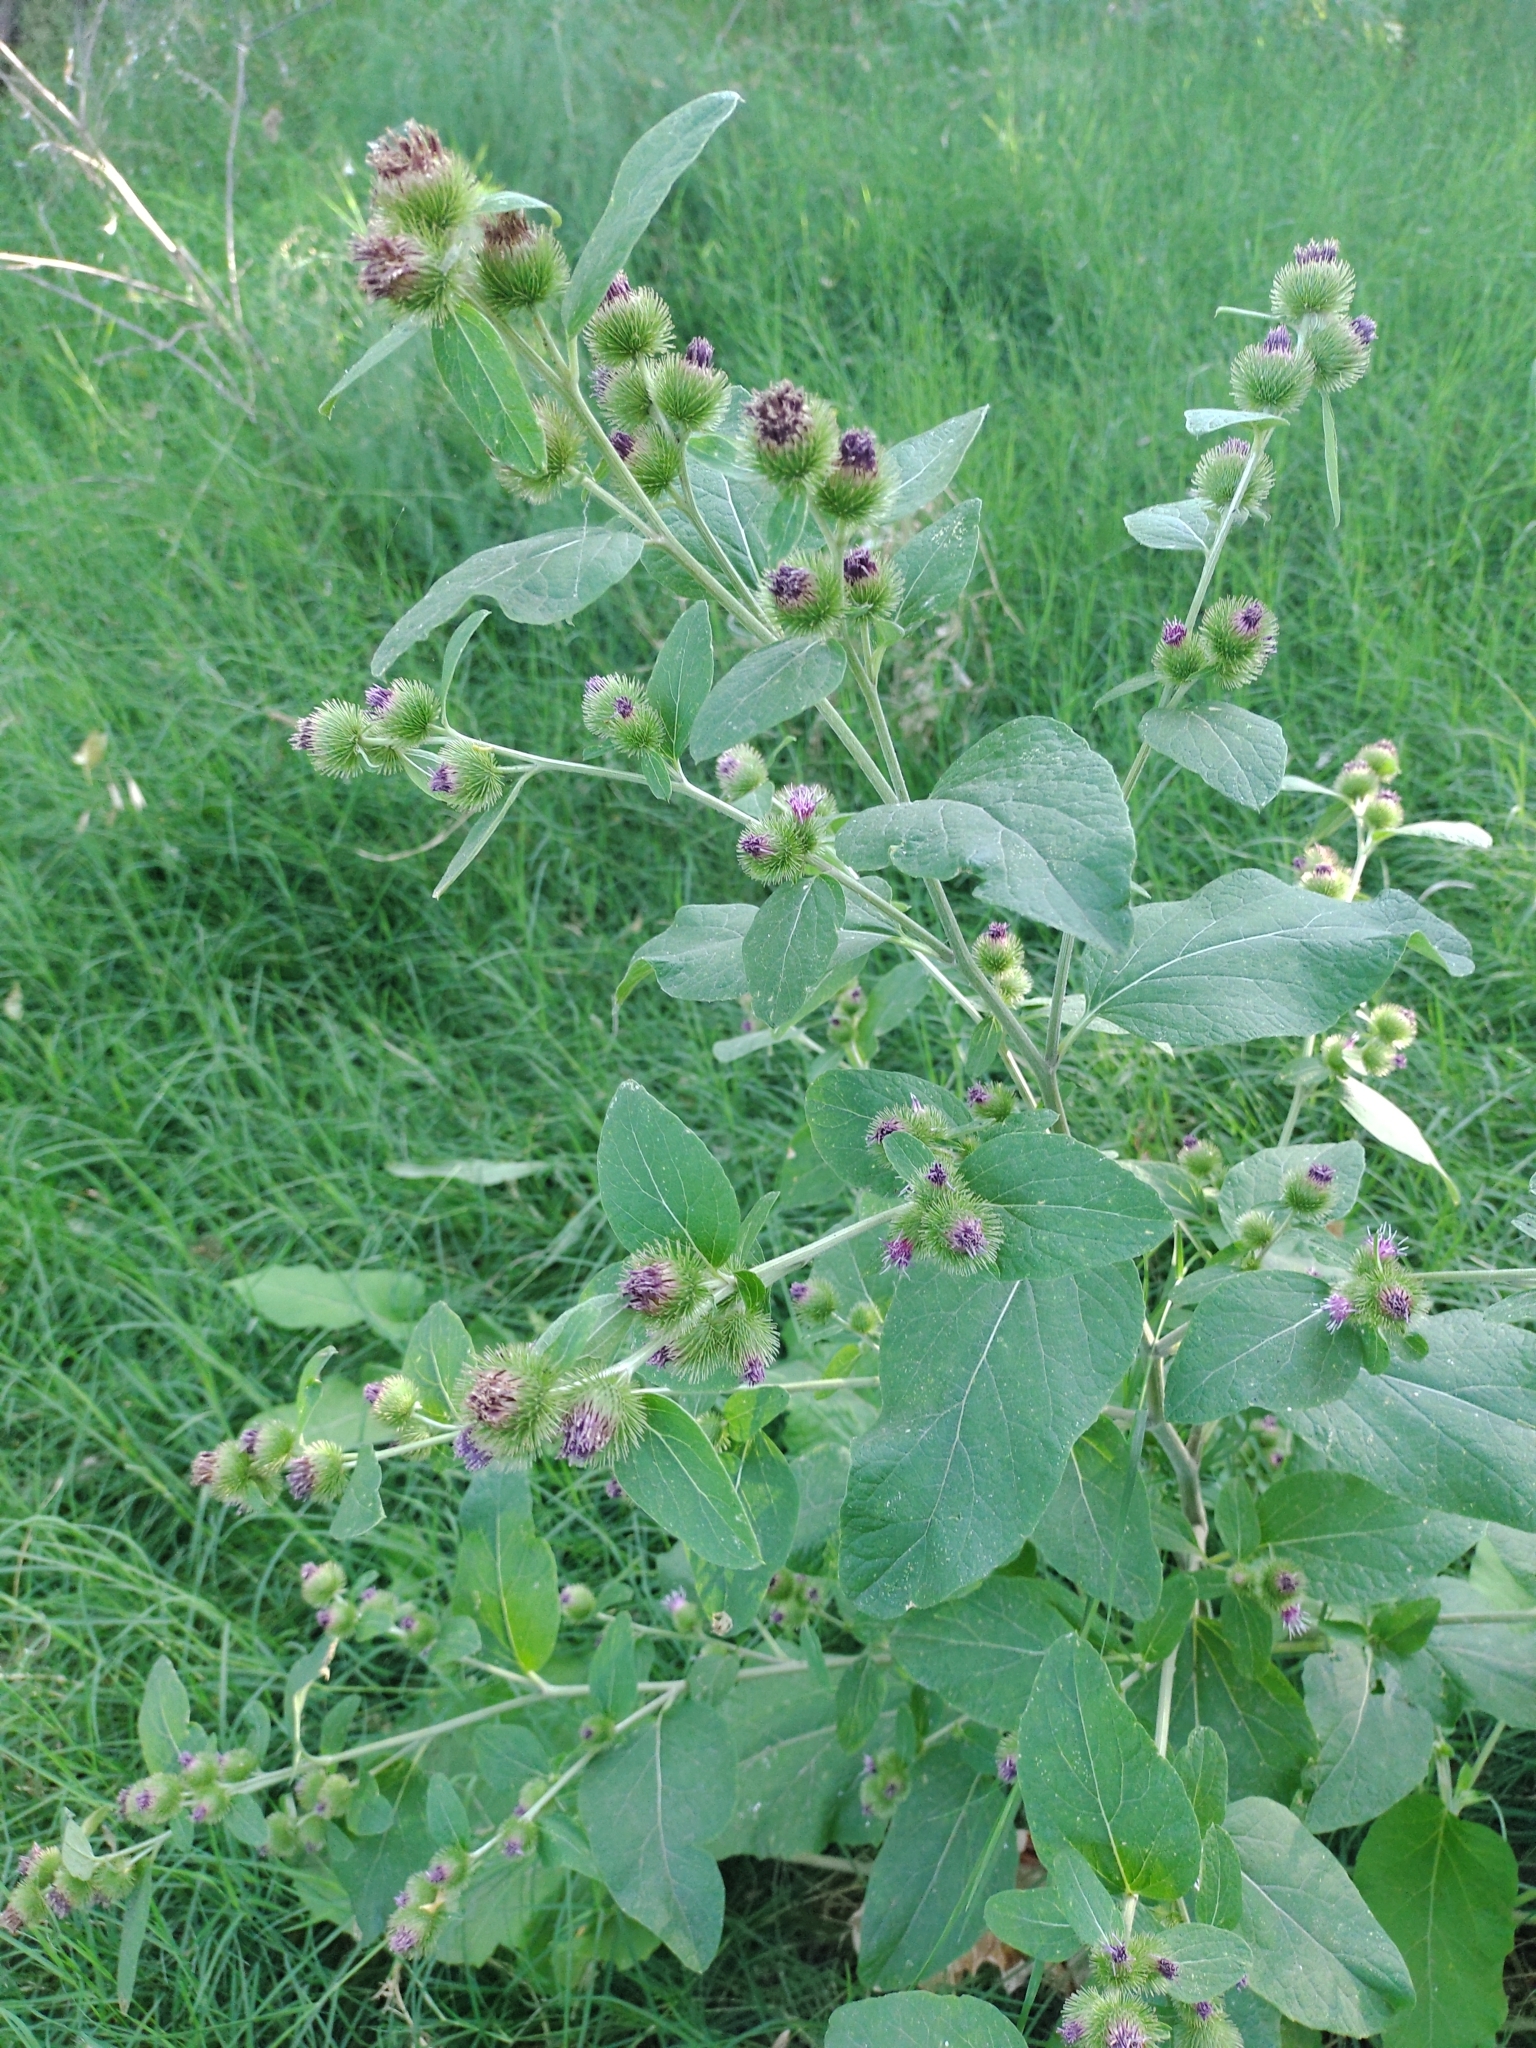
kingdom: Plantae
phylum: Tracheophyta
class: Magnoliopsida
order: Asterales
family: Asteraceae
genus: Arctium
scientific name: Arctium minus
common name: Lesser burdock
